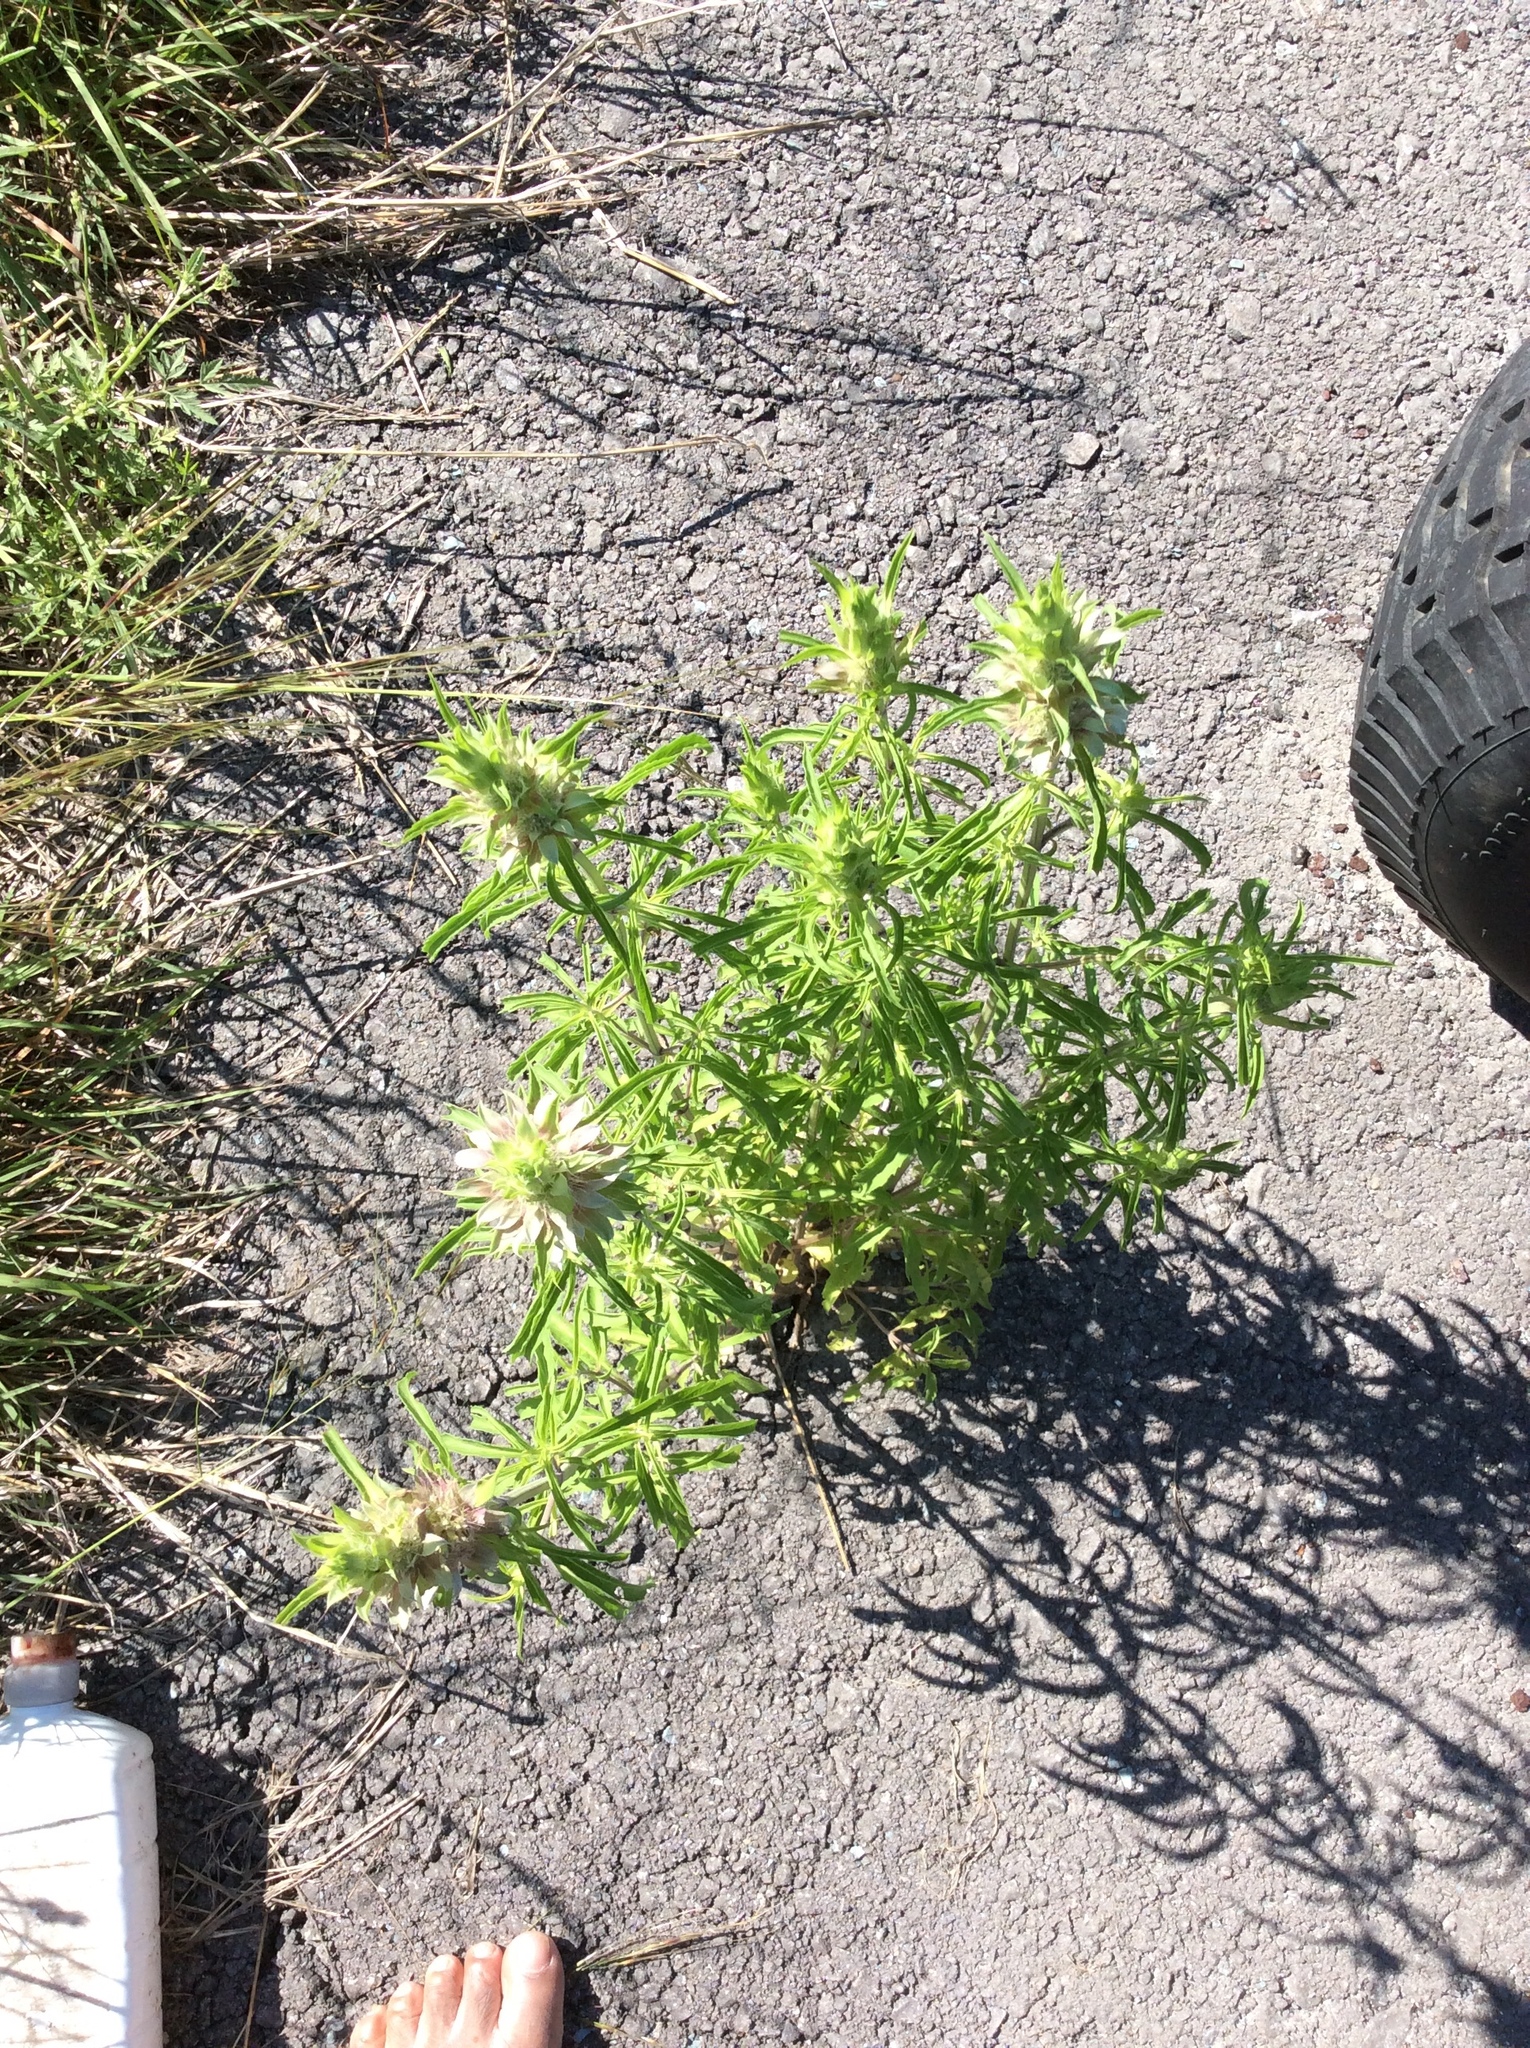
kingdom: Plantae
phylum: Tracheophyta
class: Magnoliopsida
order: Lamiales
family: Lamiaceae
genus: Monarda
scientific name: Monarda citriodora
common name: Lemon beebalm
